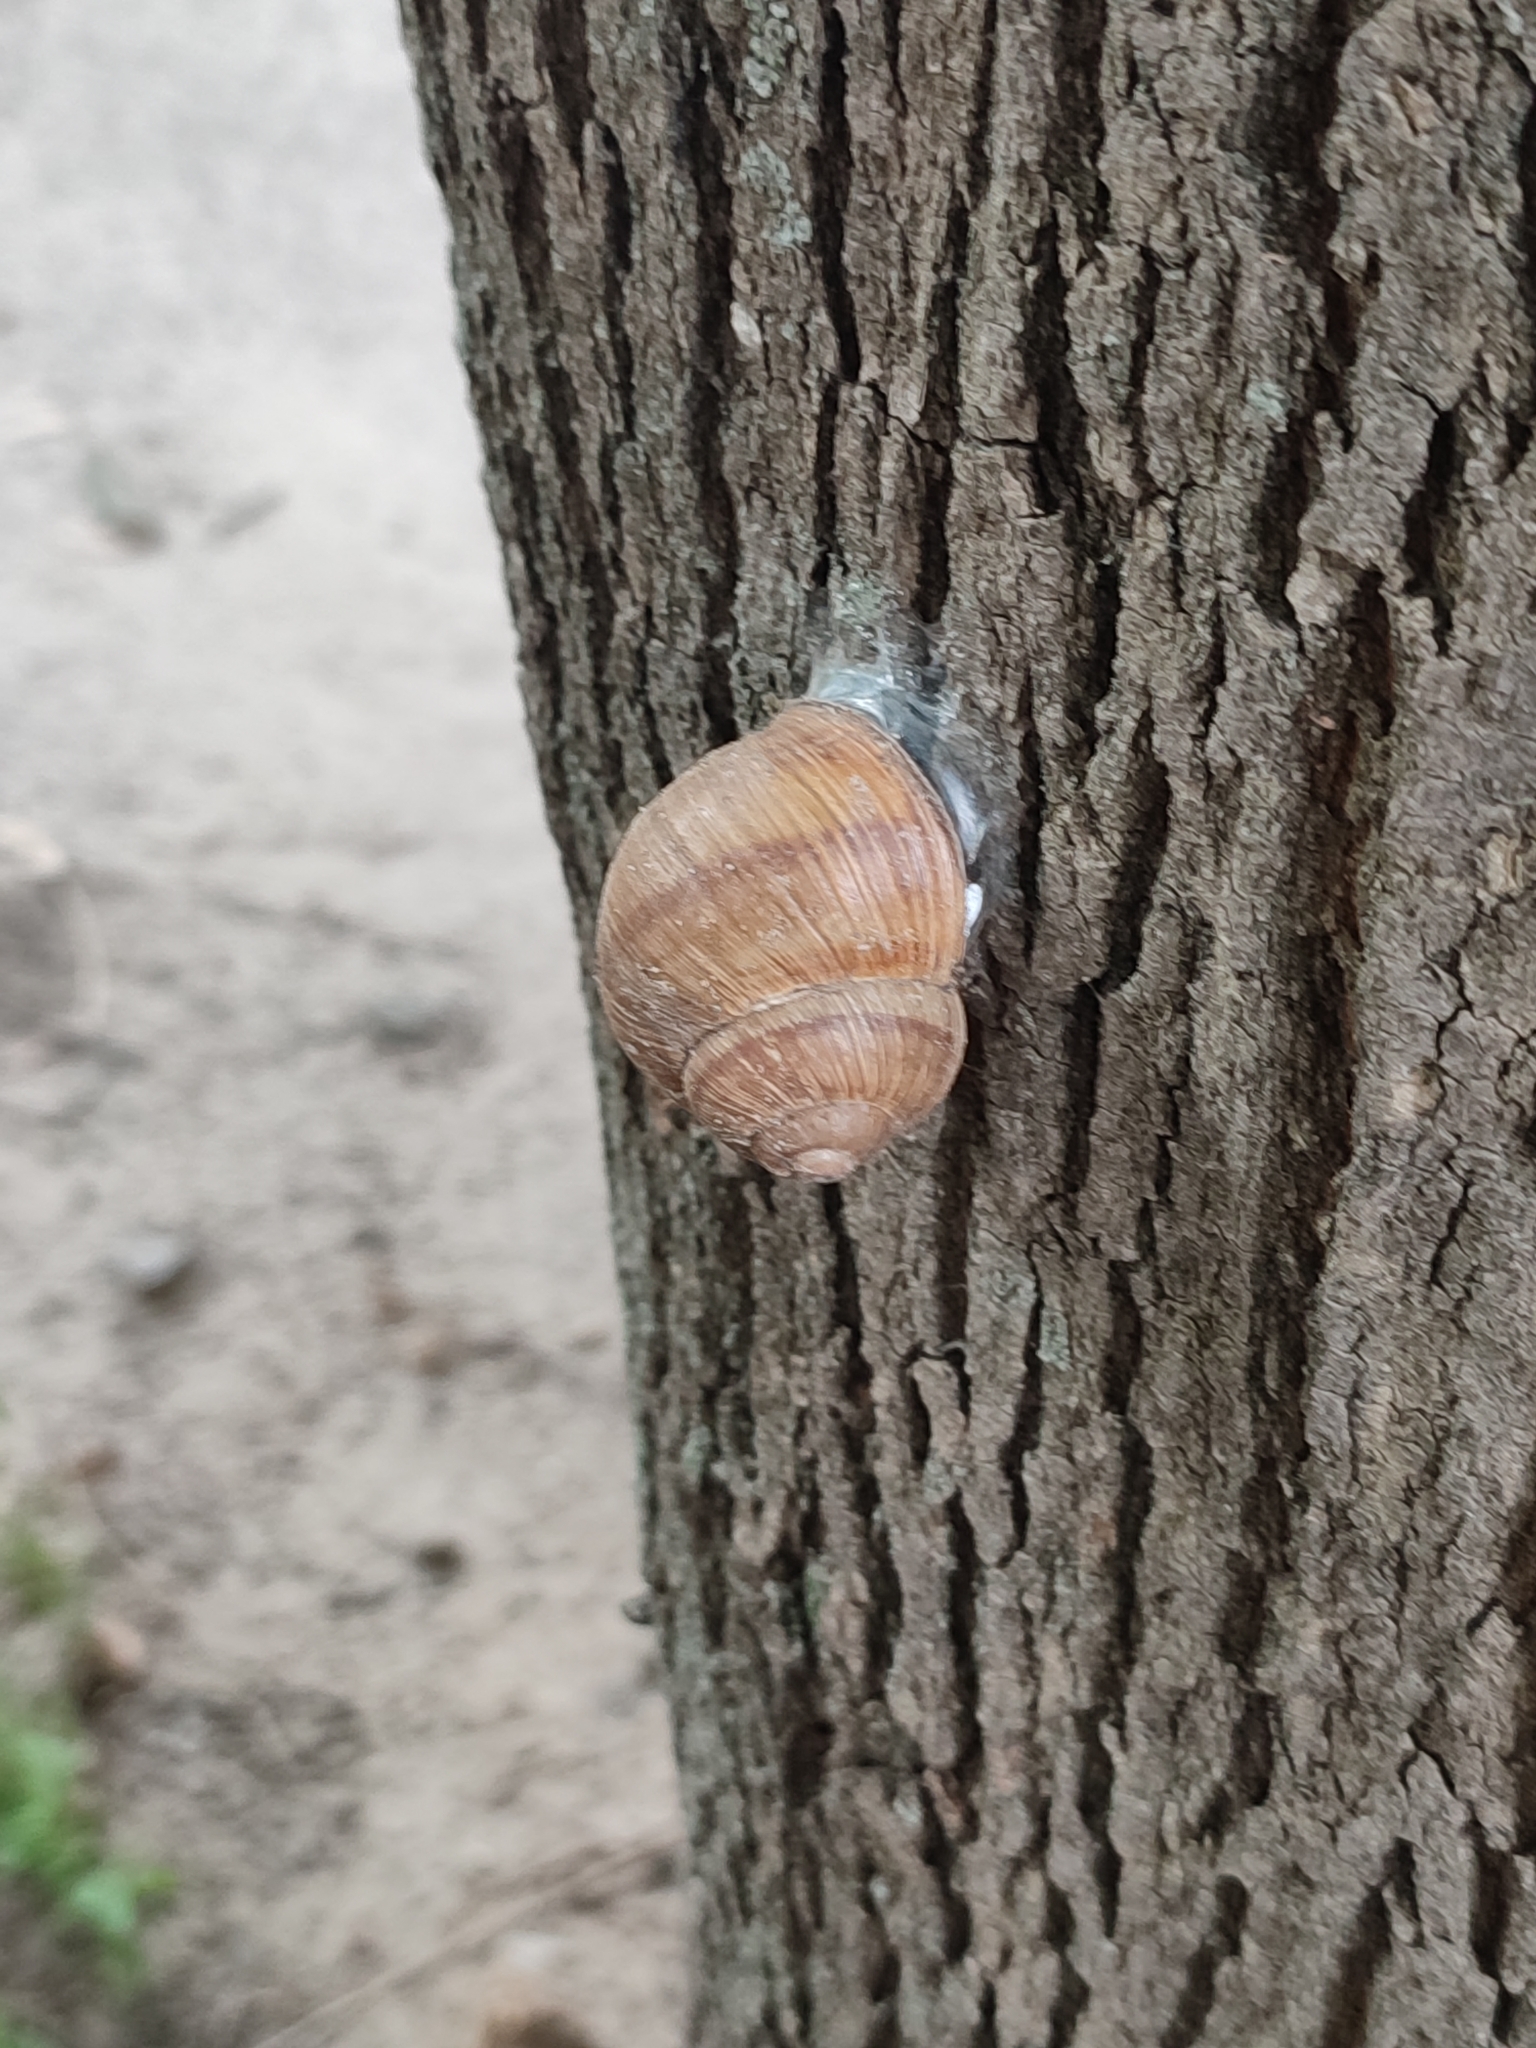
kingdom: Animalia
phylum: Mollusca
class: Gastropoda
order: Stylommatophora
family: Helicidae
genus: Helix
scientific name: Helix pomatia
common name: Roman snail
